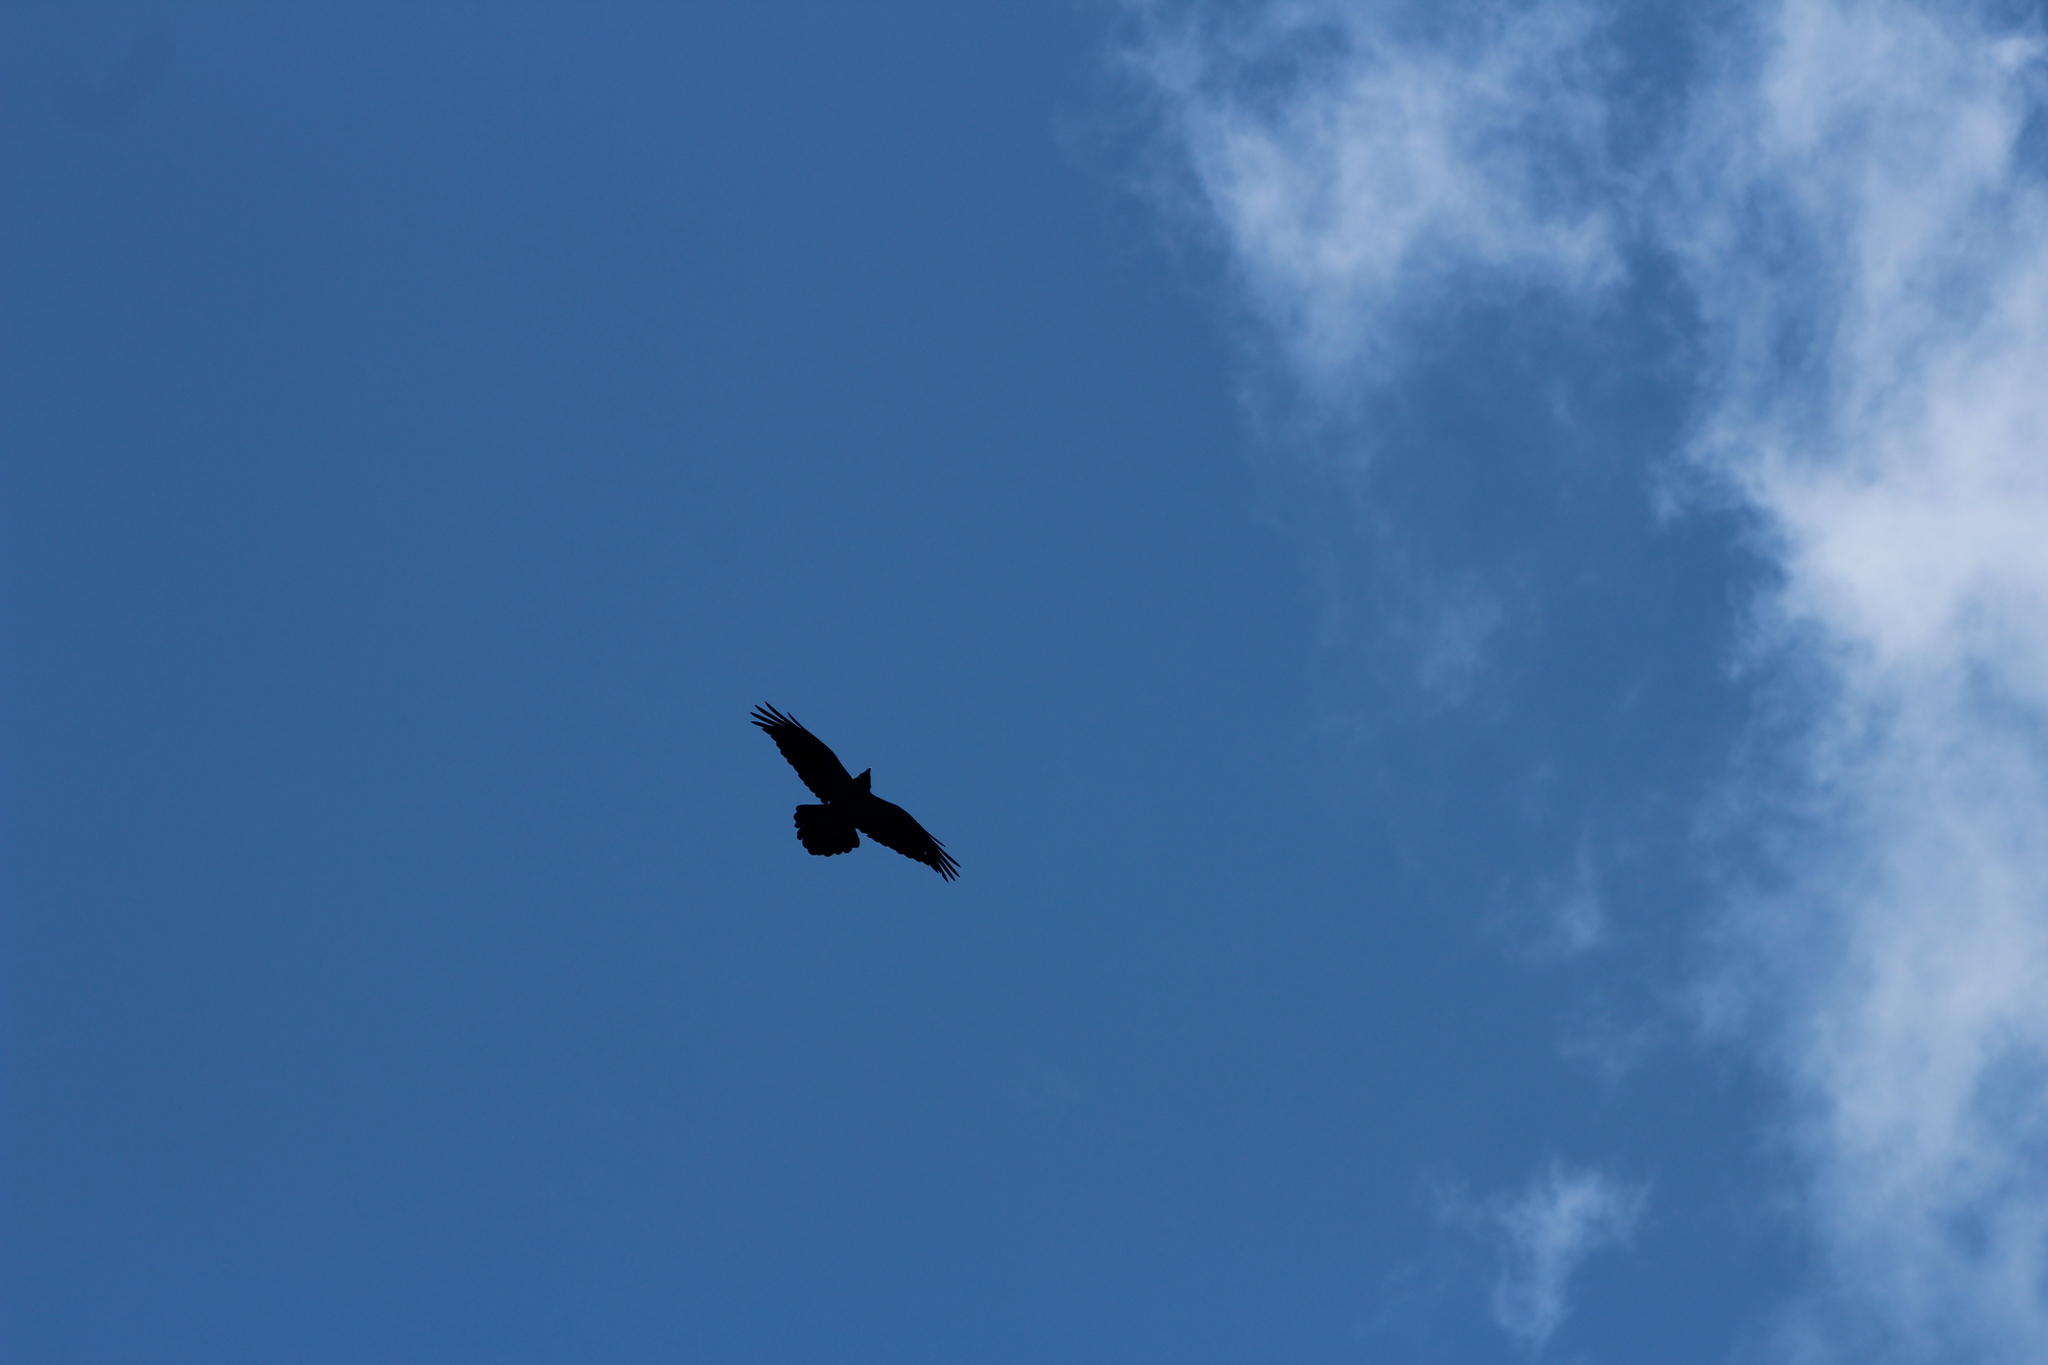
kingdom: Animalia
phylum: Chordata
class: Aves
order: Passeriformes
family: Corvidae
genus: Corvus
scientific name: Corvus corax
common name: Common raven
